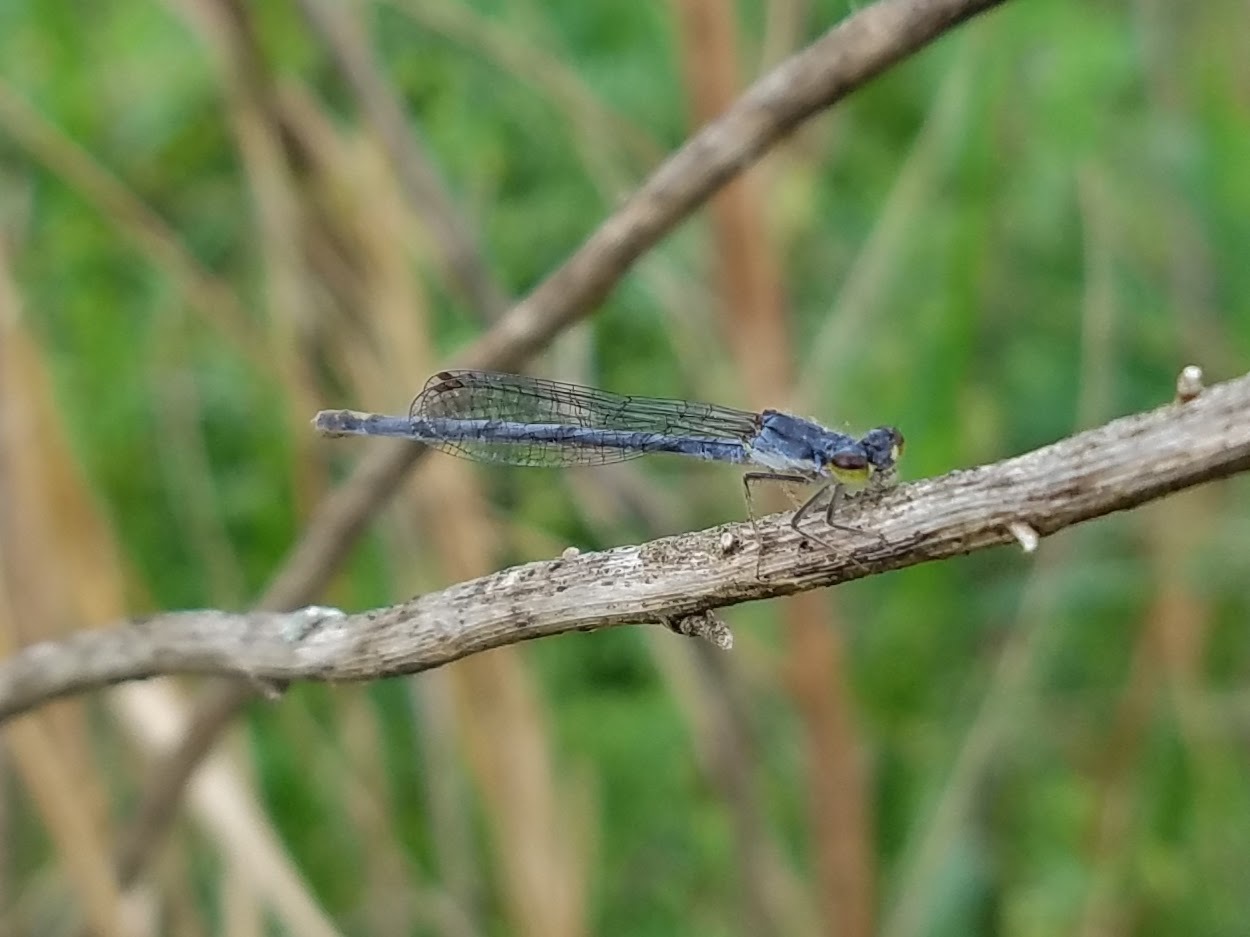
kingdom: Animalia
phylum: Arthropoda
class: Insecta
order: Odonata
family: Coenagrionidae
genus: Ischnura
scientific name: Ischnura posita
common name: Fragile forktail
